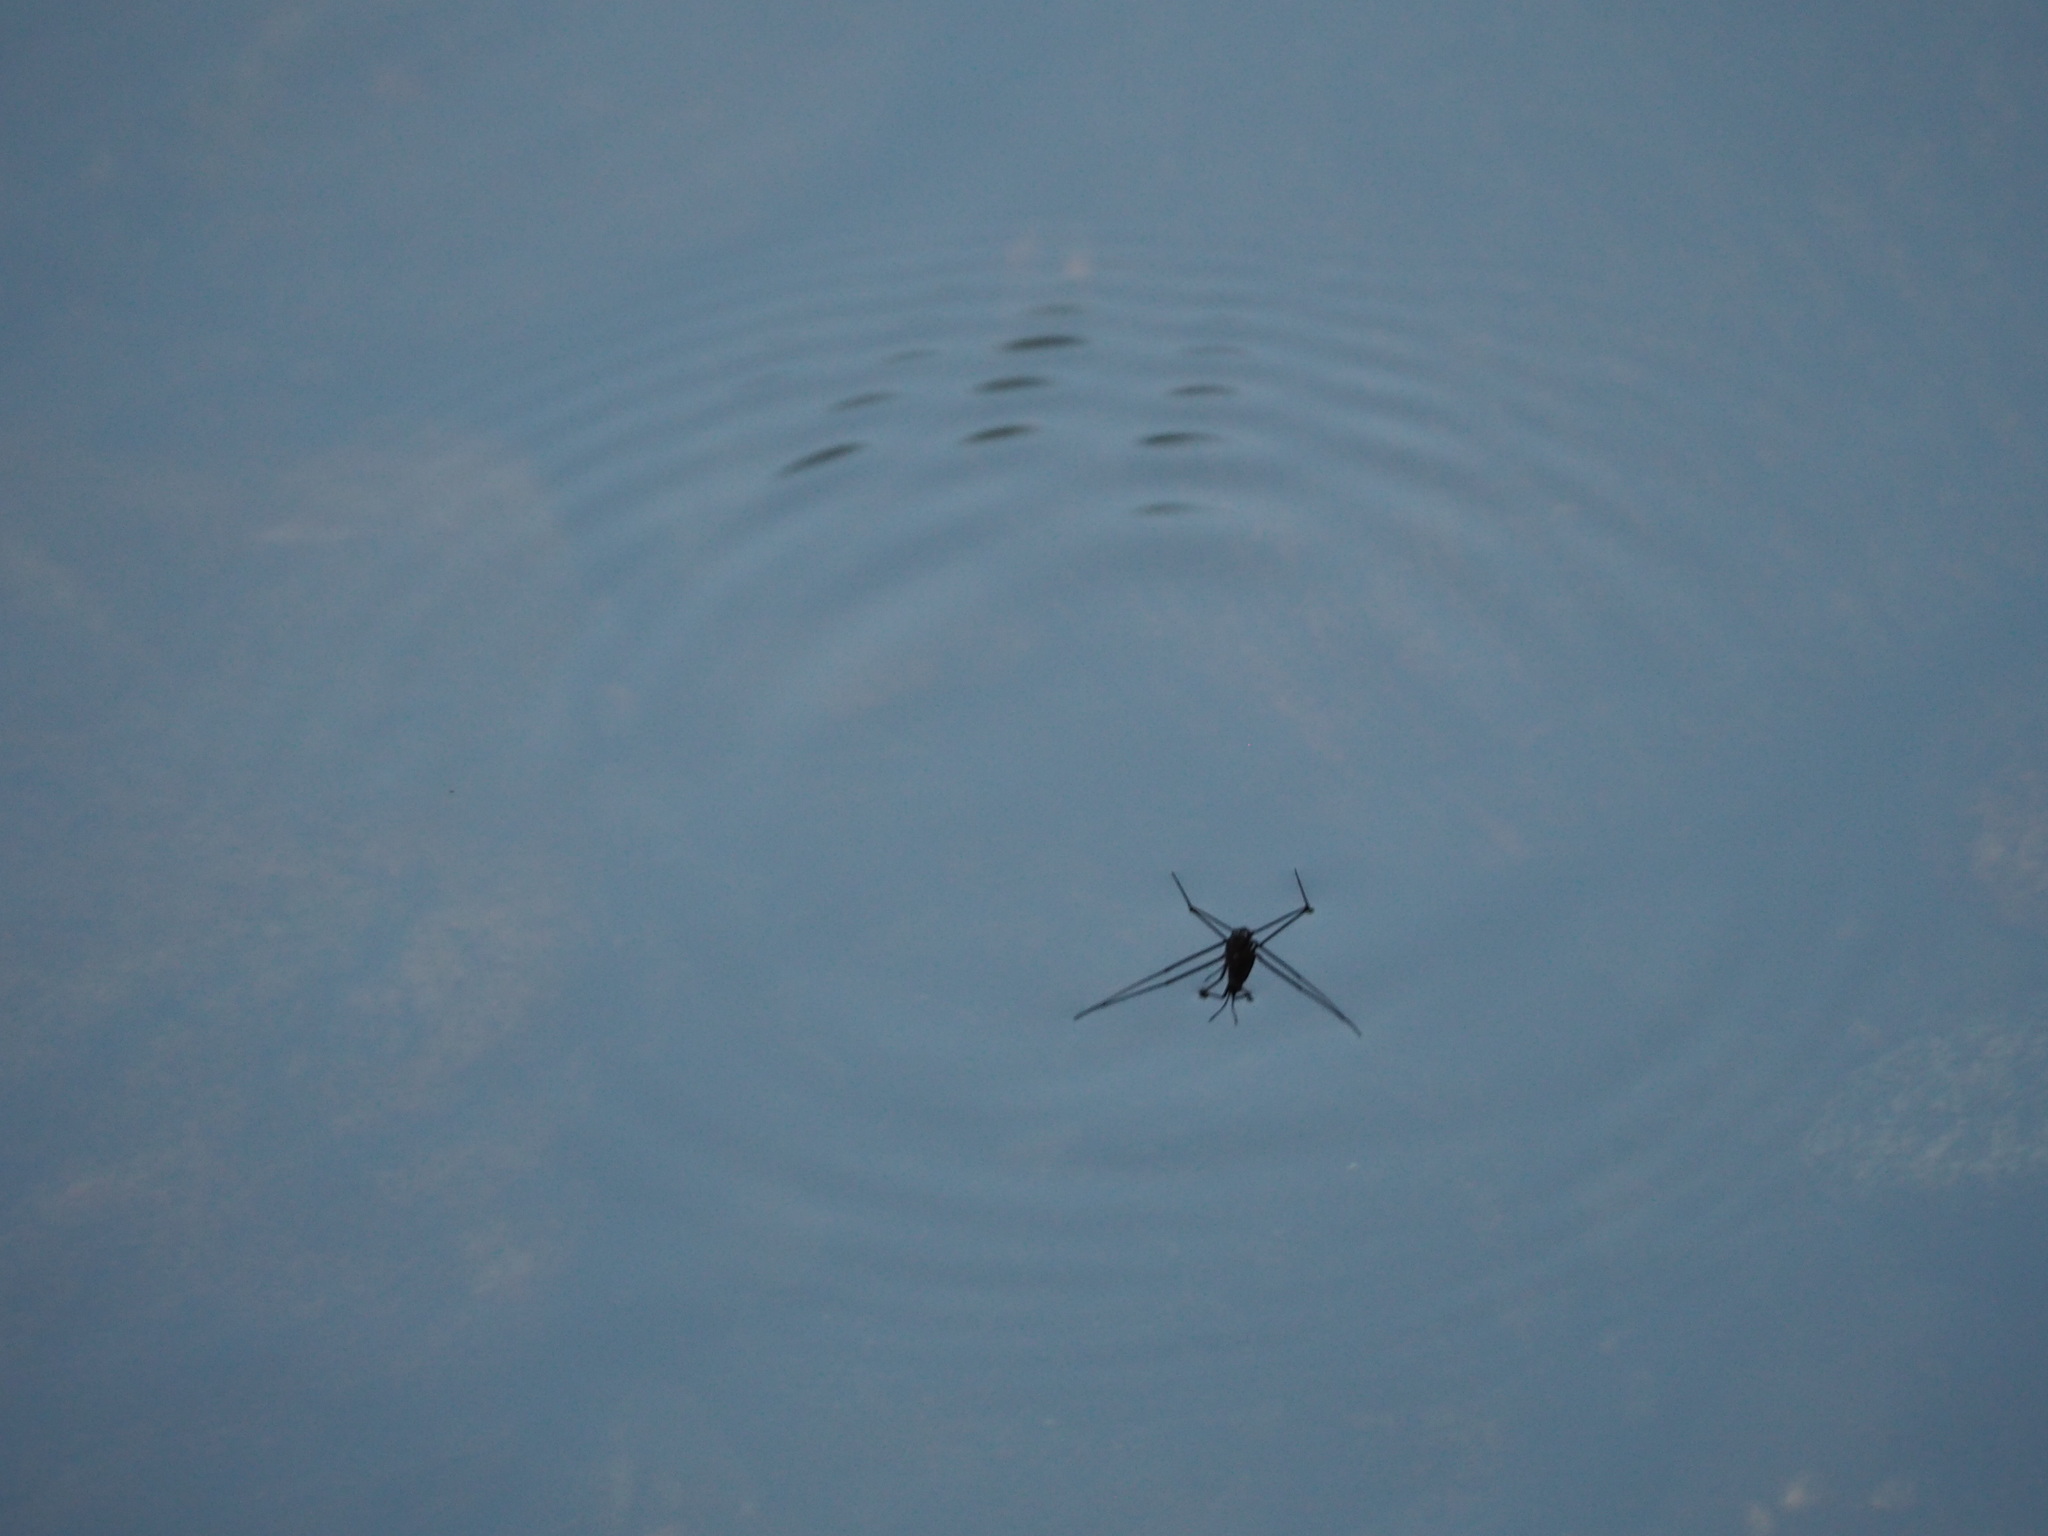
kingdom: Animalia
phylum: Arthropoda
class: Insecta
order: Hemiptera
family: Gerridae
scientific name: Gerridae
